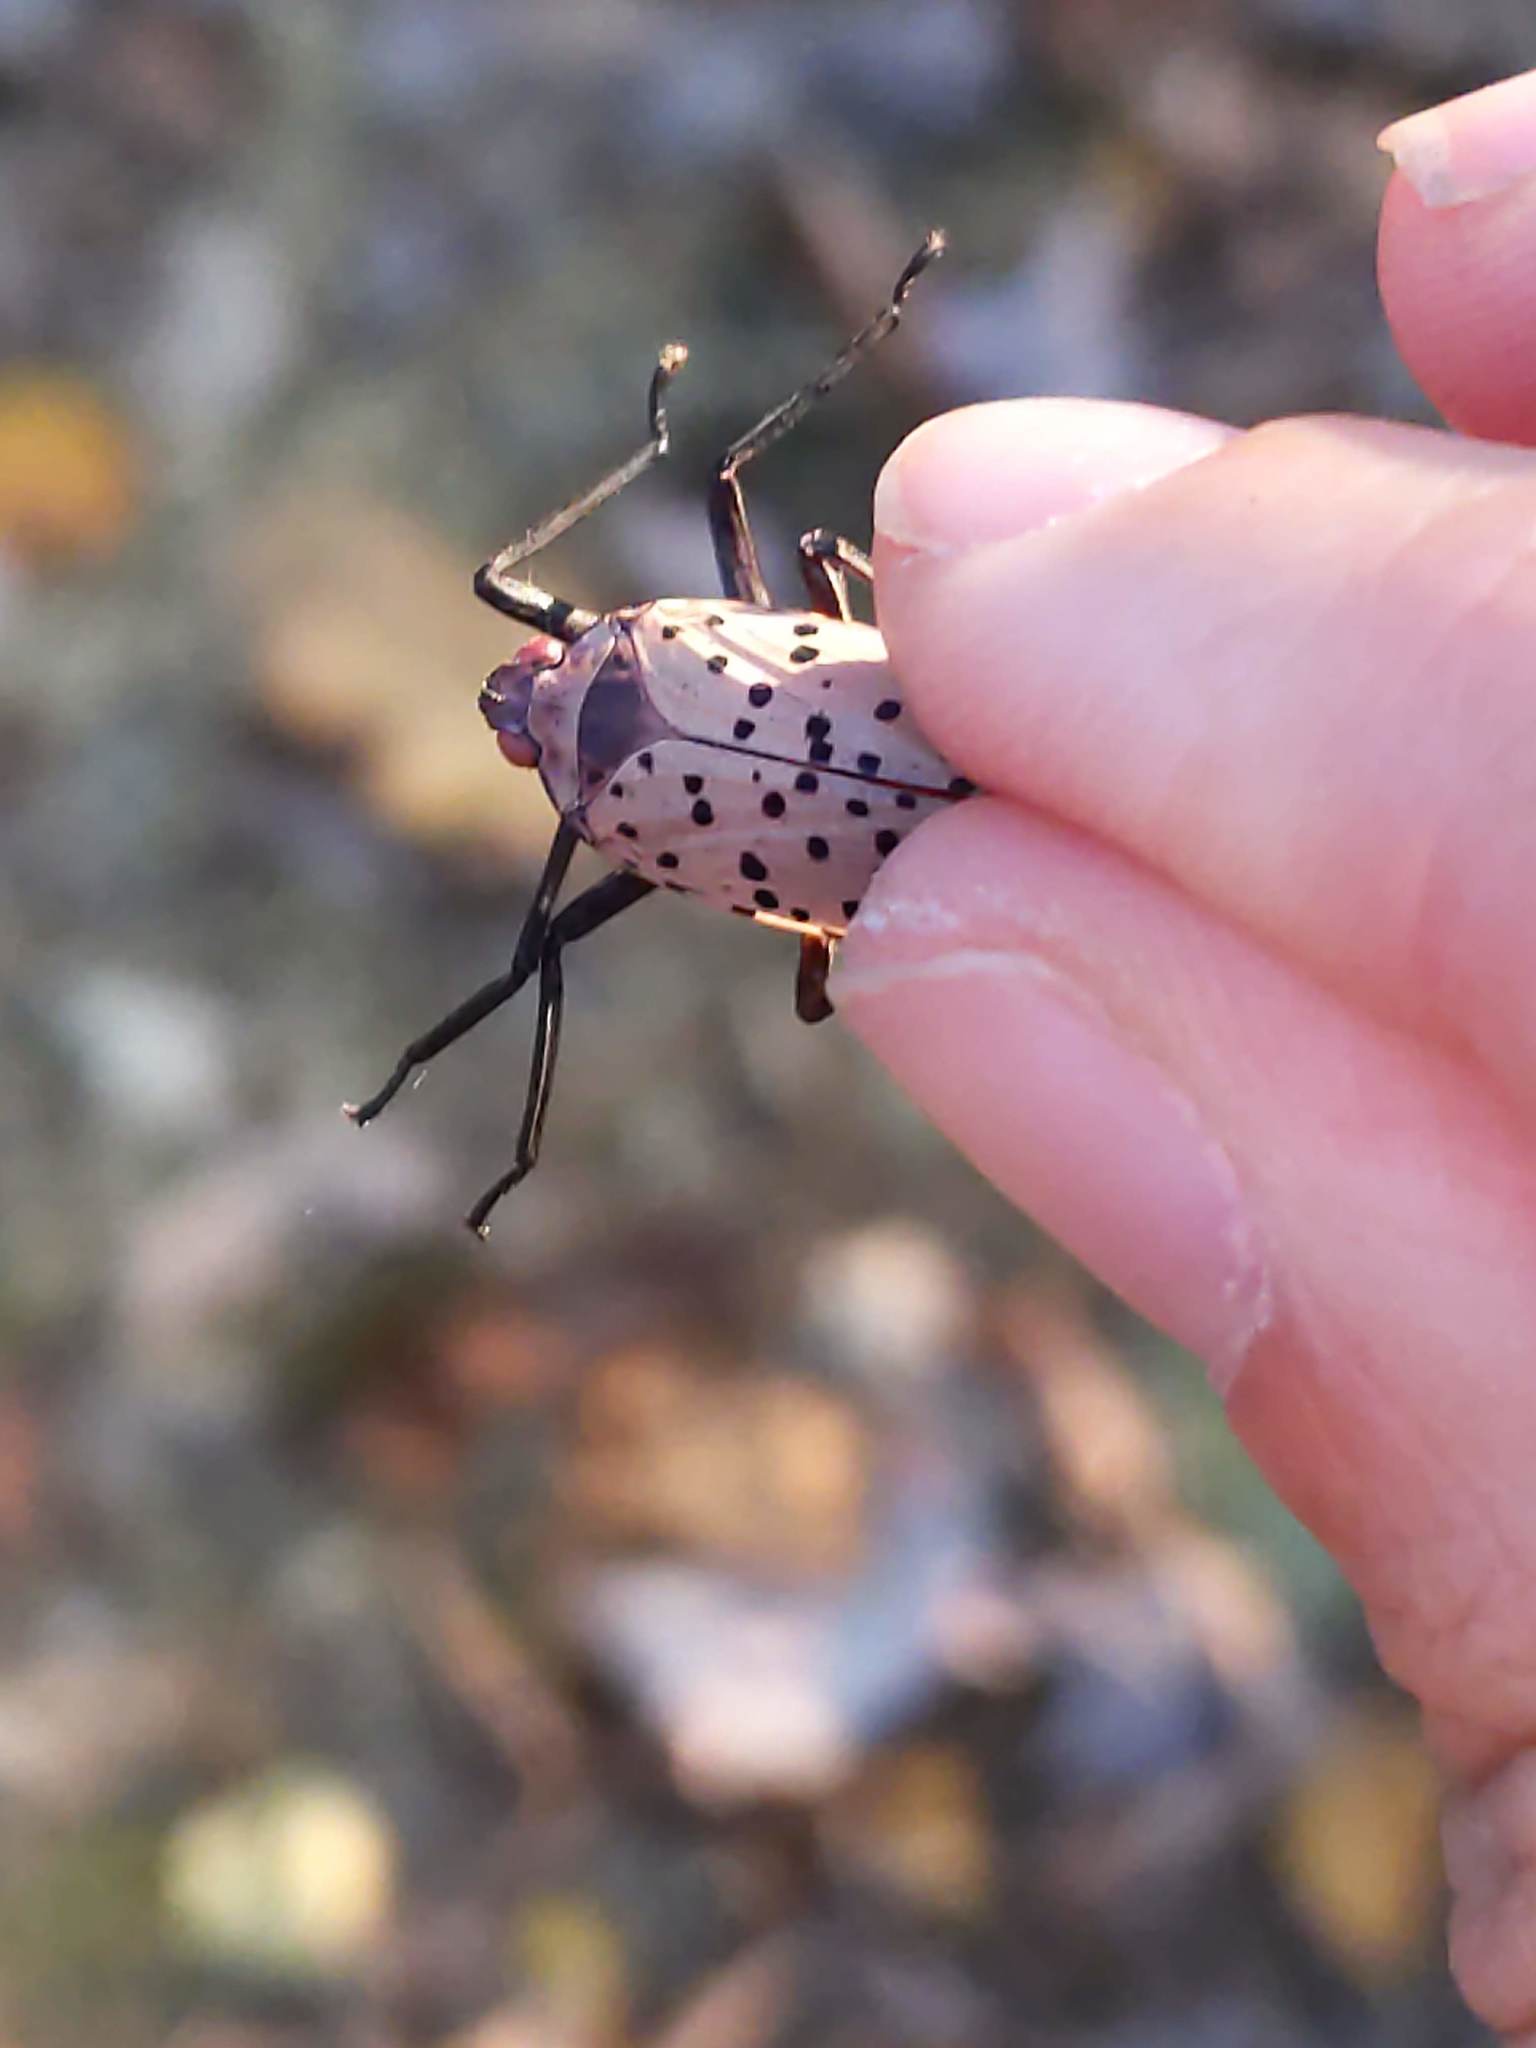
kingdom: Animalia
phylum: Arthropoda
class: Insecta
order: Hemiptera
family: Fulgoridae
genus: Lycorma
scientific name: Lycorma delicatula
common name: Spotted lanternfly
